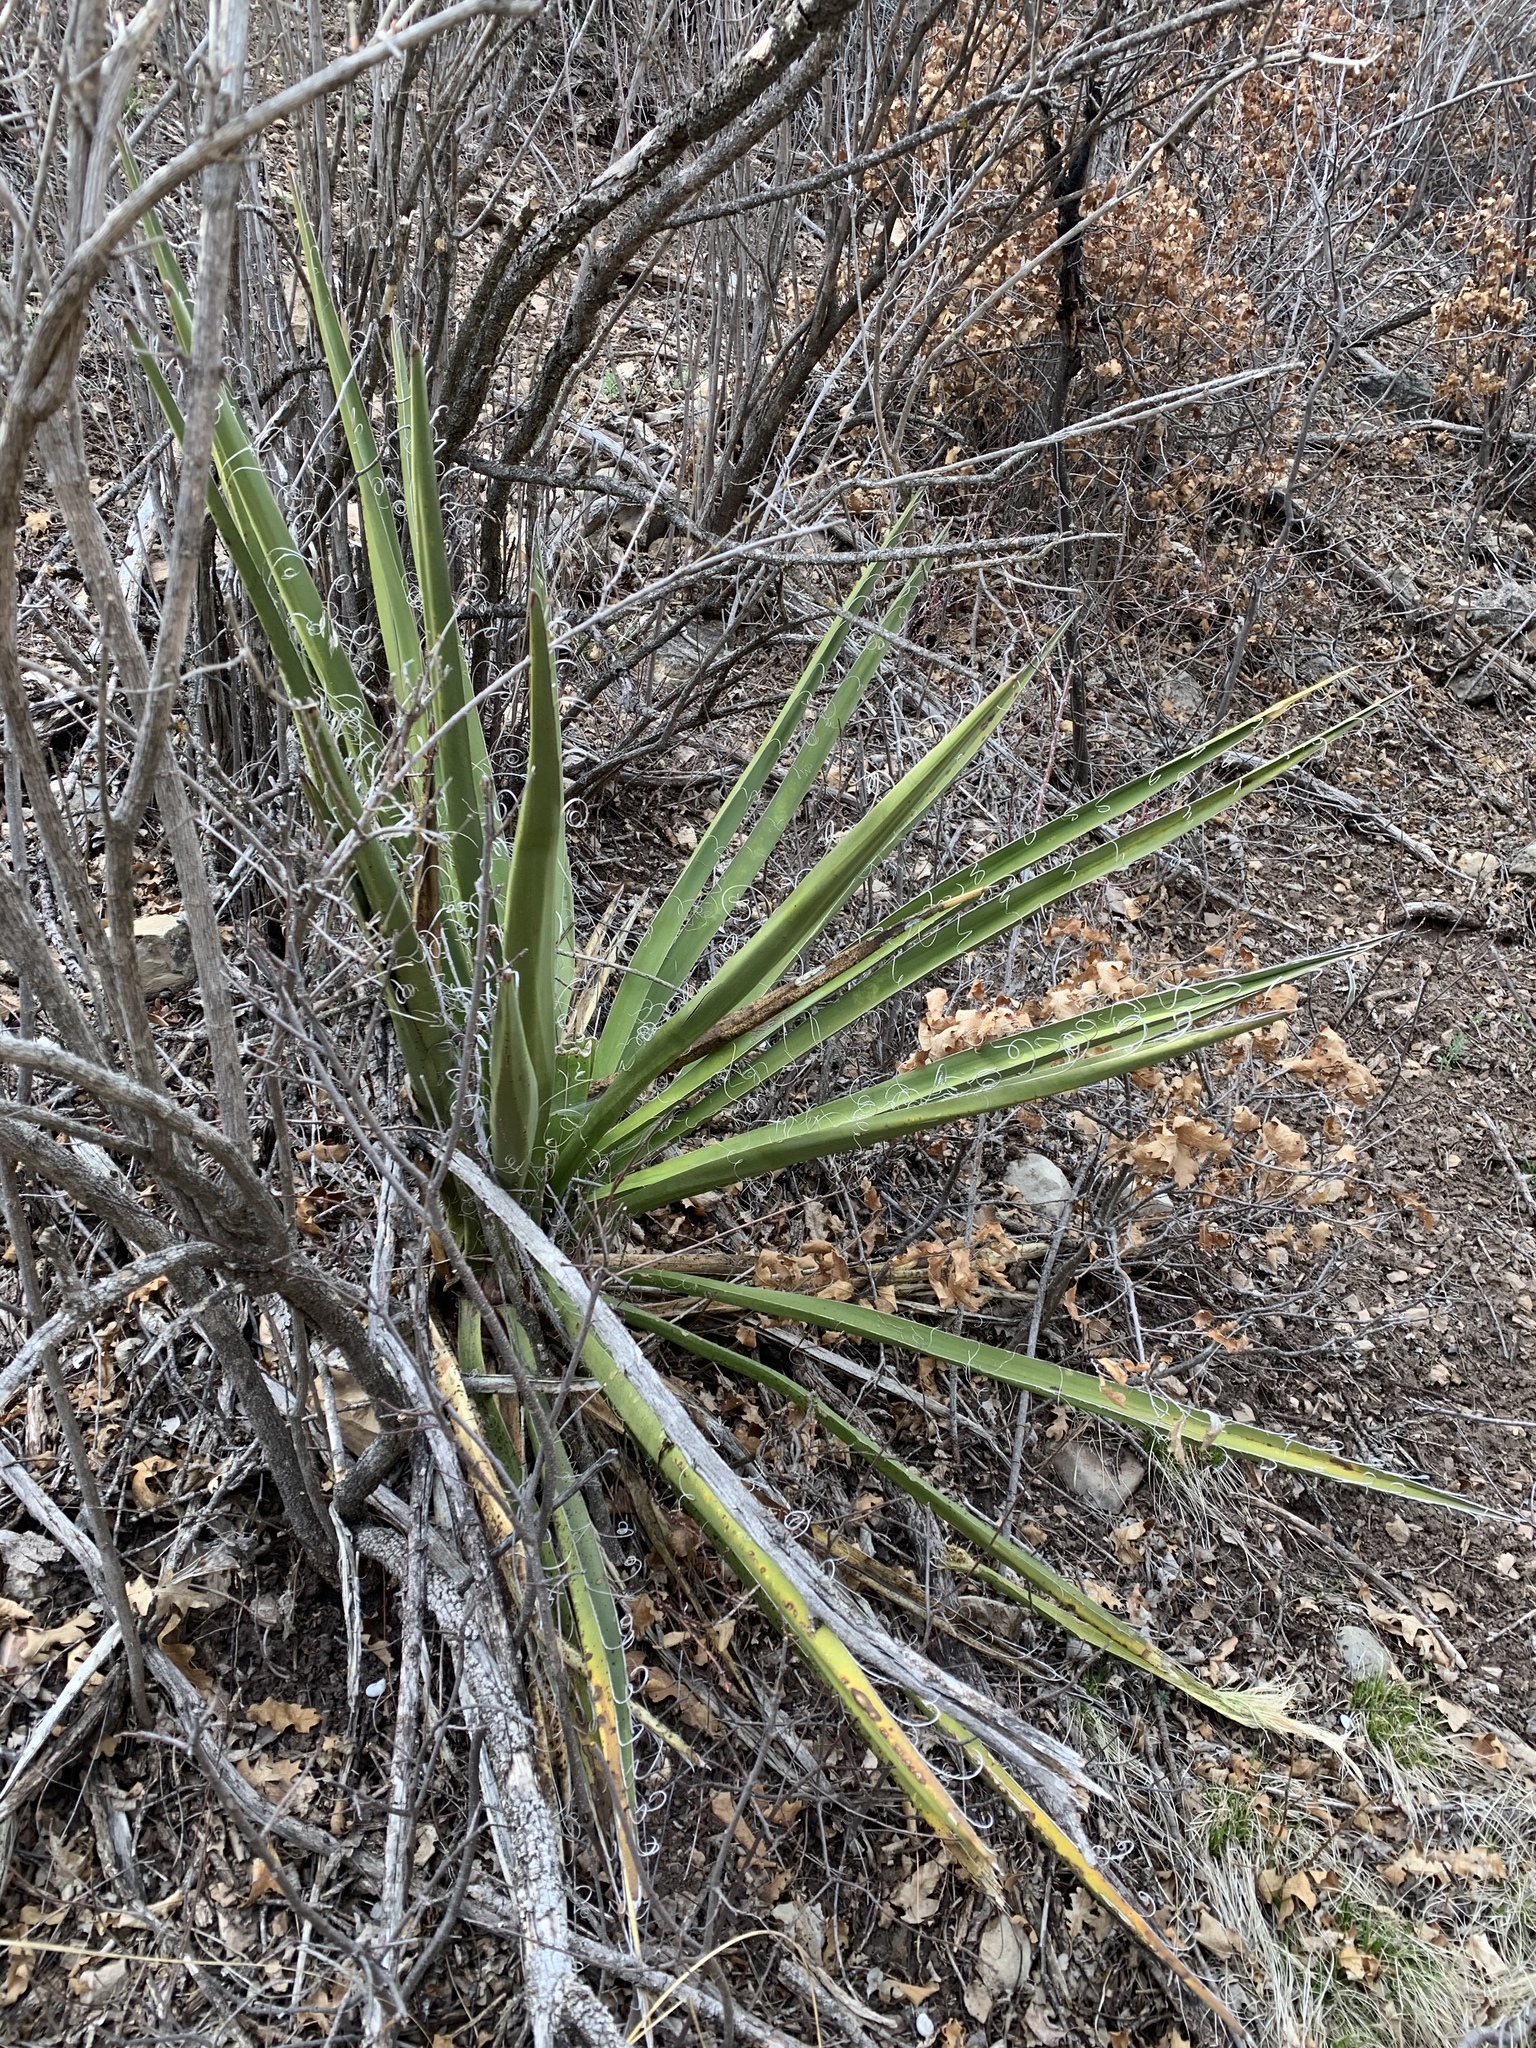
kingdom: Plantae
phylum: Tracheophyta
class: Liliopsida
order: Asparagales
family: Asparagaceae
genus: Yucca
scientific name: Yucca baccata
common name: Banana yucca
